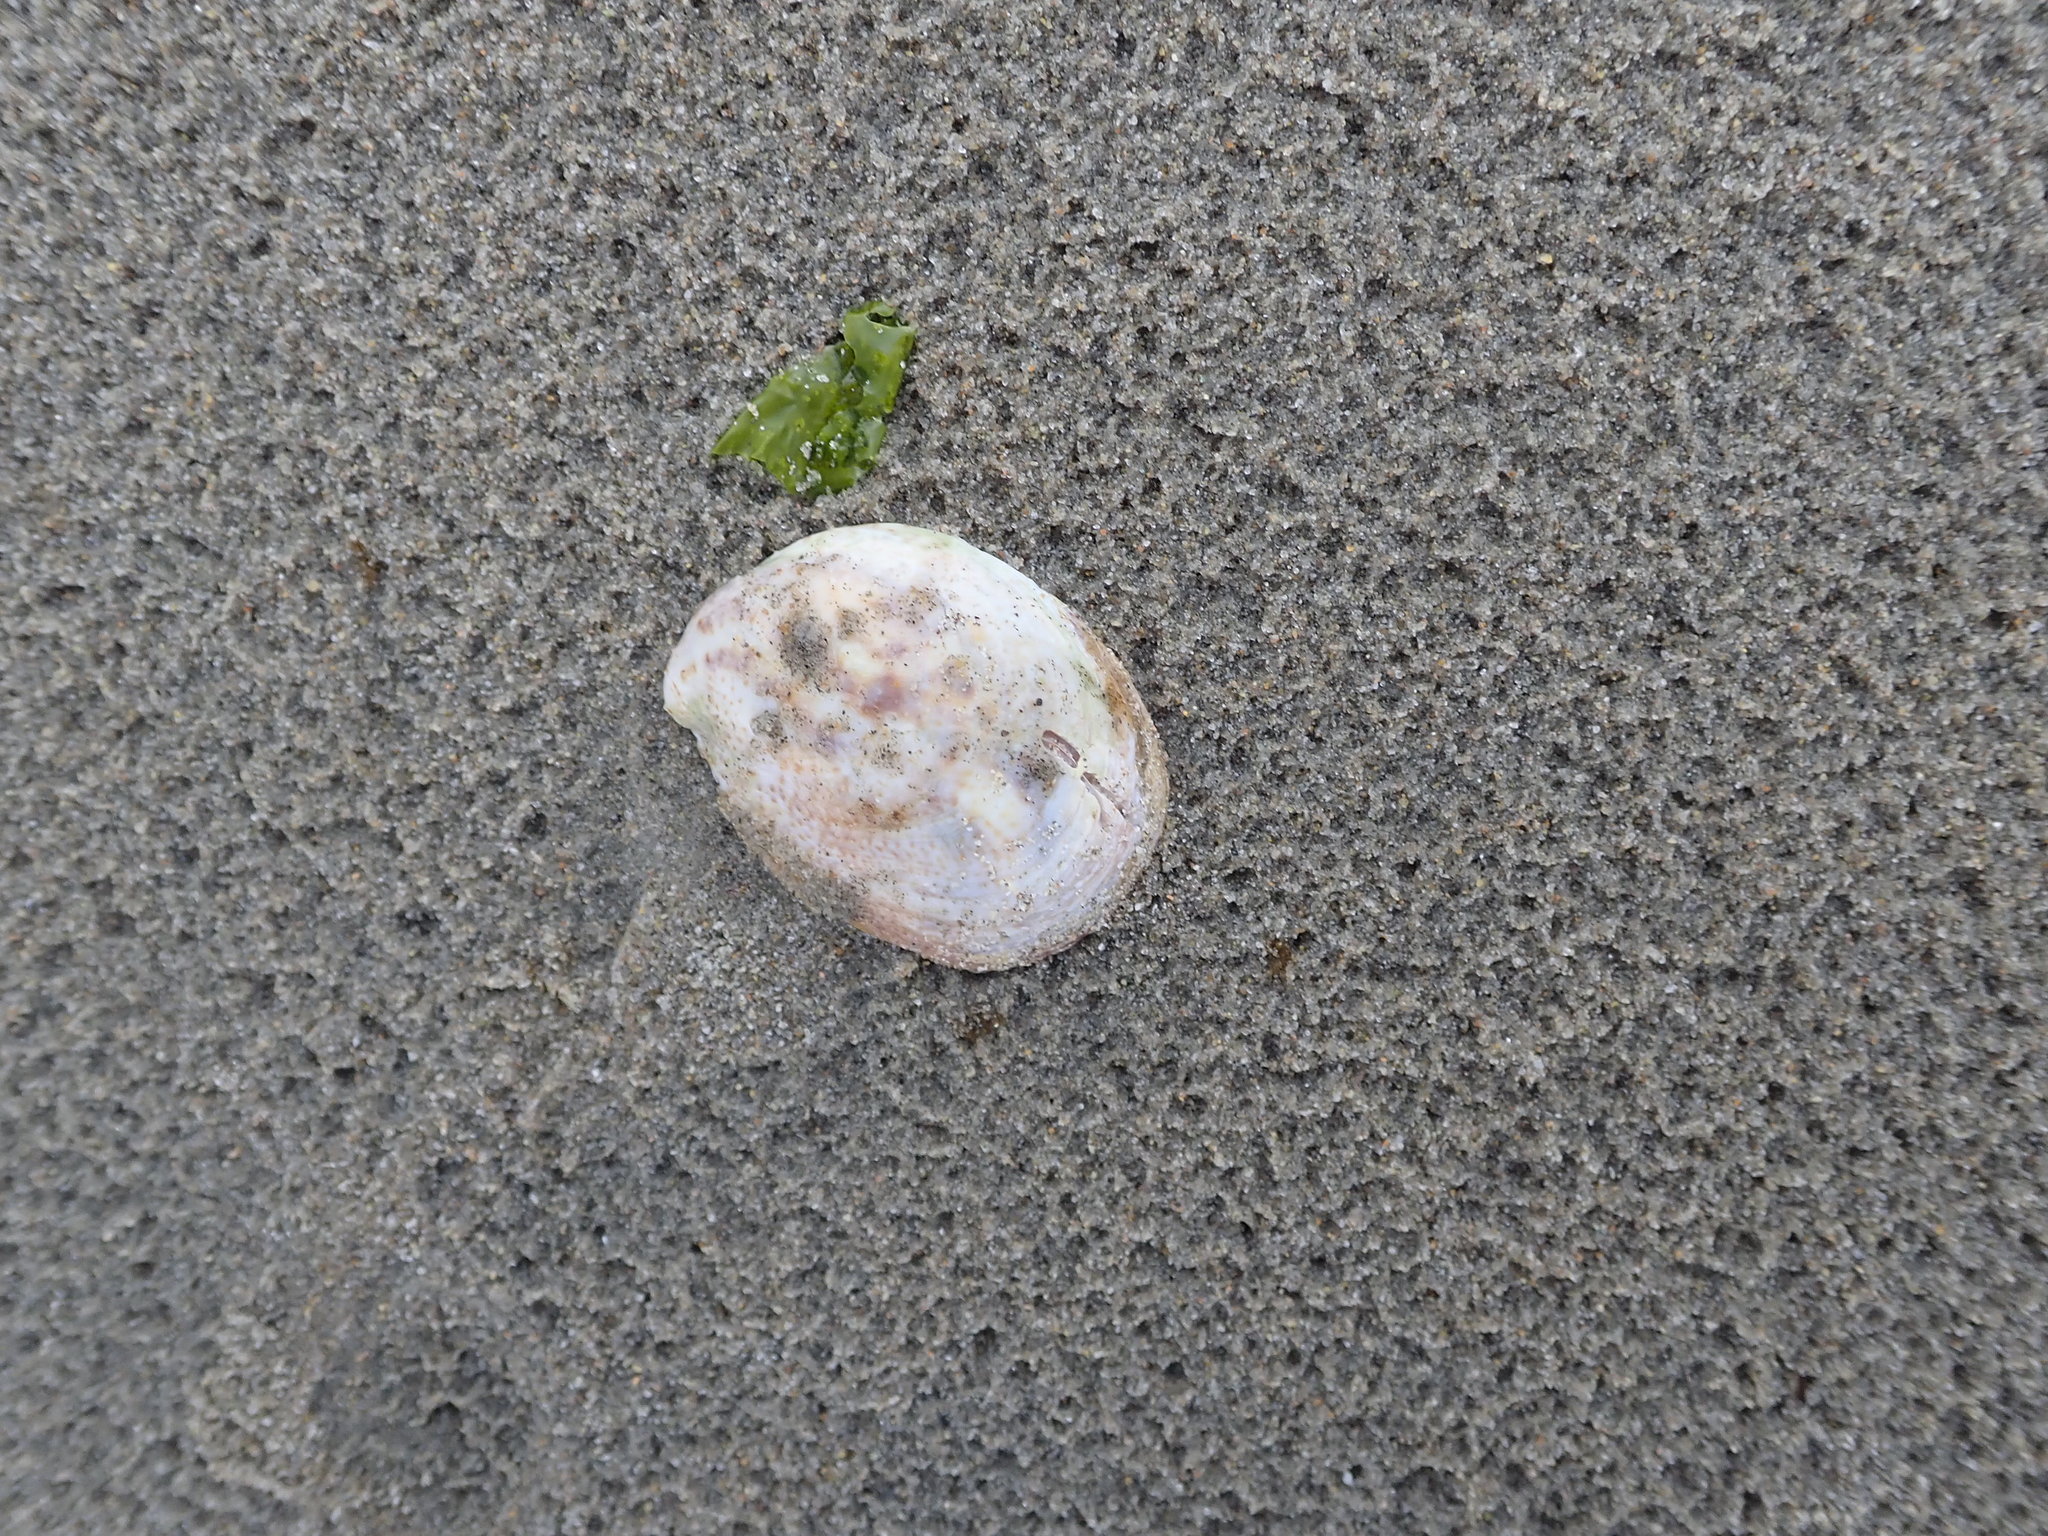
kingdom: Animalia
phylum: Mollusca
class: Gastropoda
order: Littorinimorpha
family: Calyptraeidae
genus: Crepidula
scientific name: Crepidula fornicata
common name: Slipper limpet
